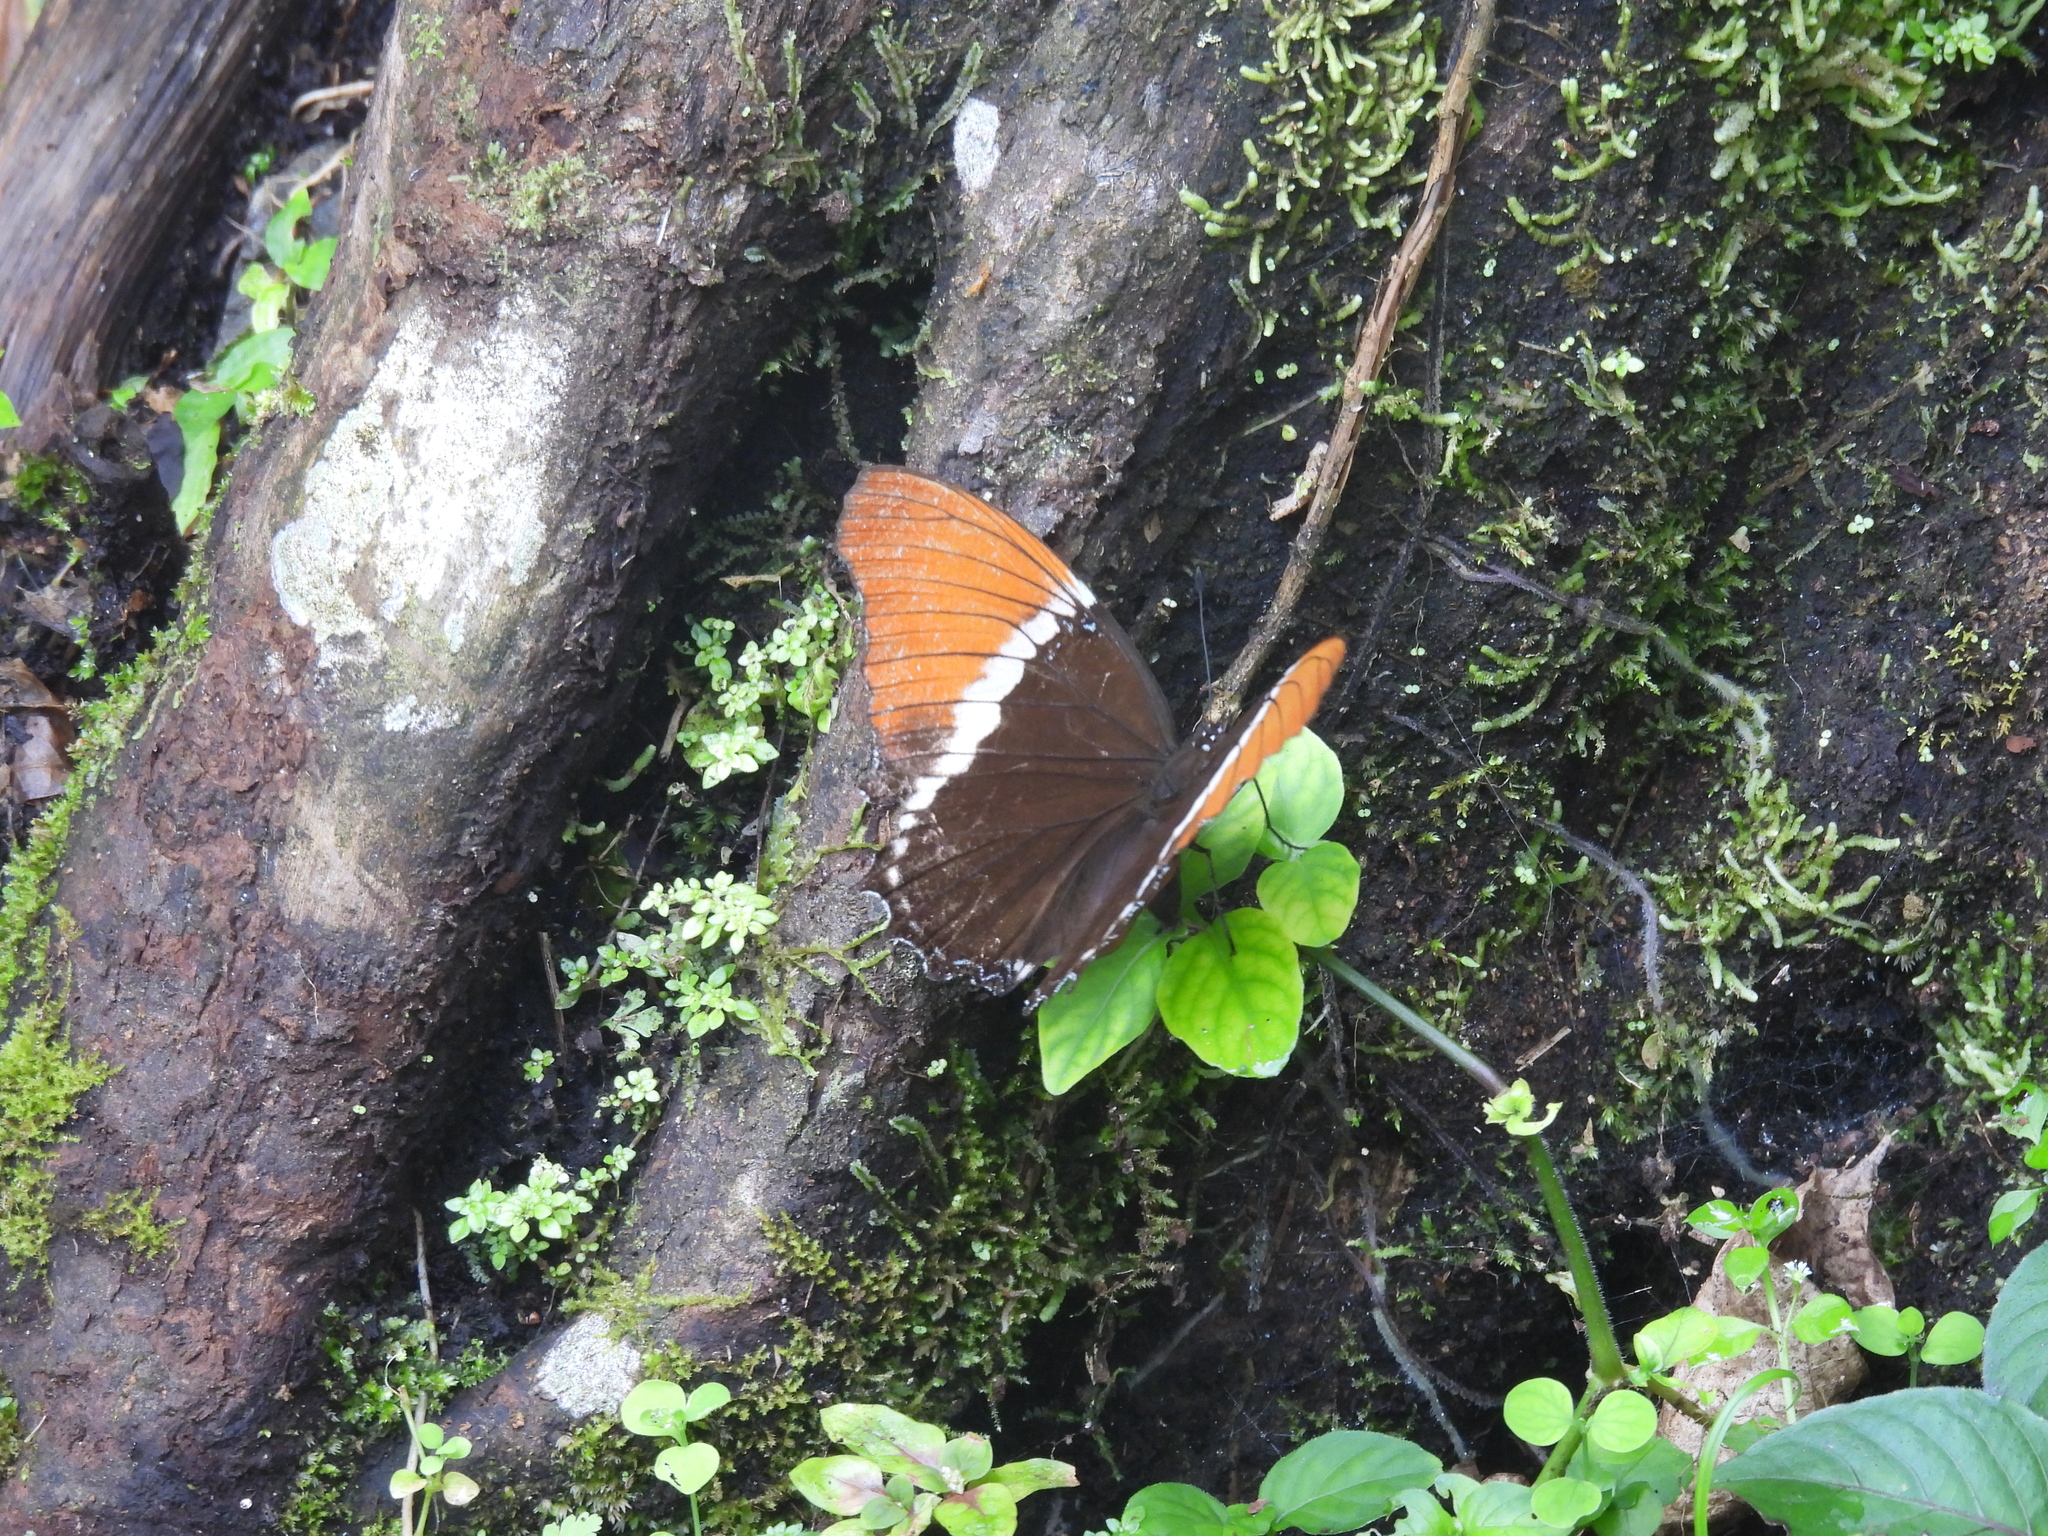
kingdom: Animalia
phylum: Arthropoda
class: Insecta
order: Lepidoptera
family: Nymphalidae
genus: Siproeta
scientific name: Siproeta epaphus
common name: Rusty-tipped page
